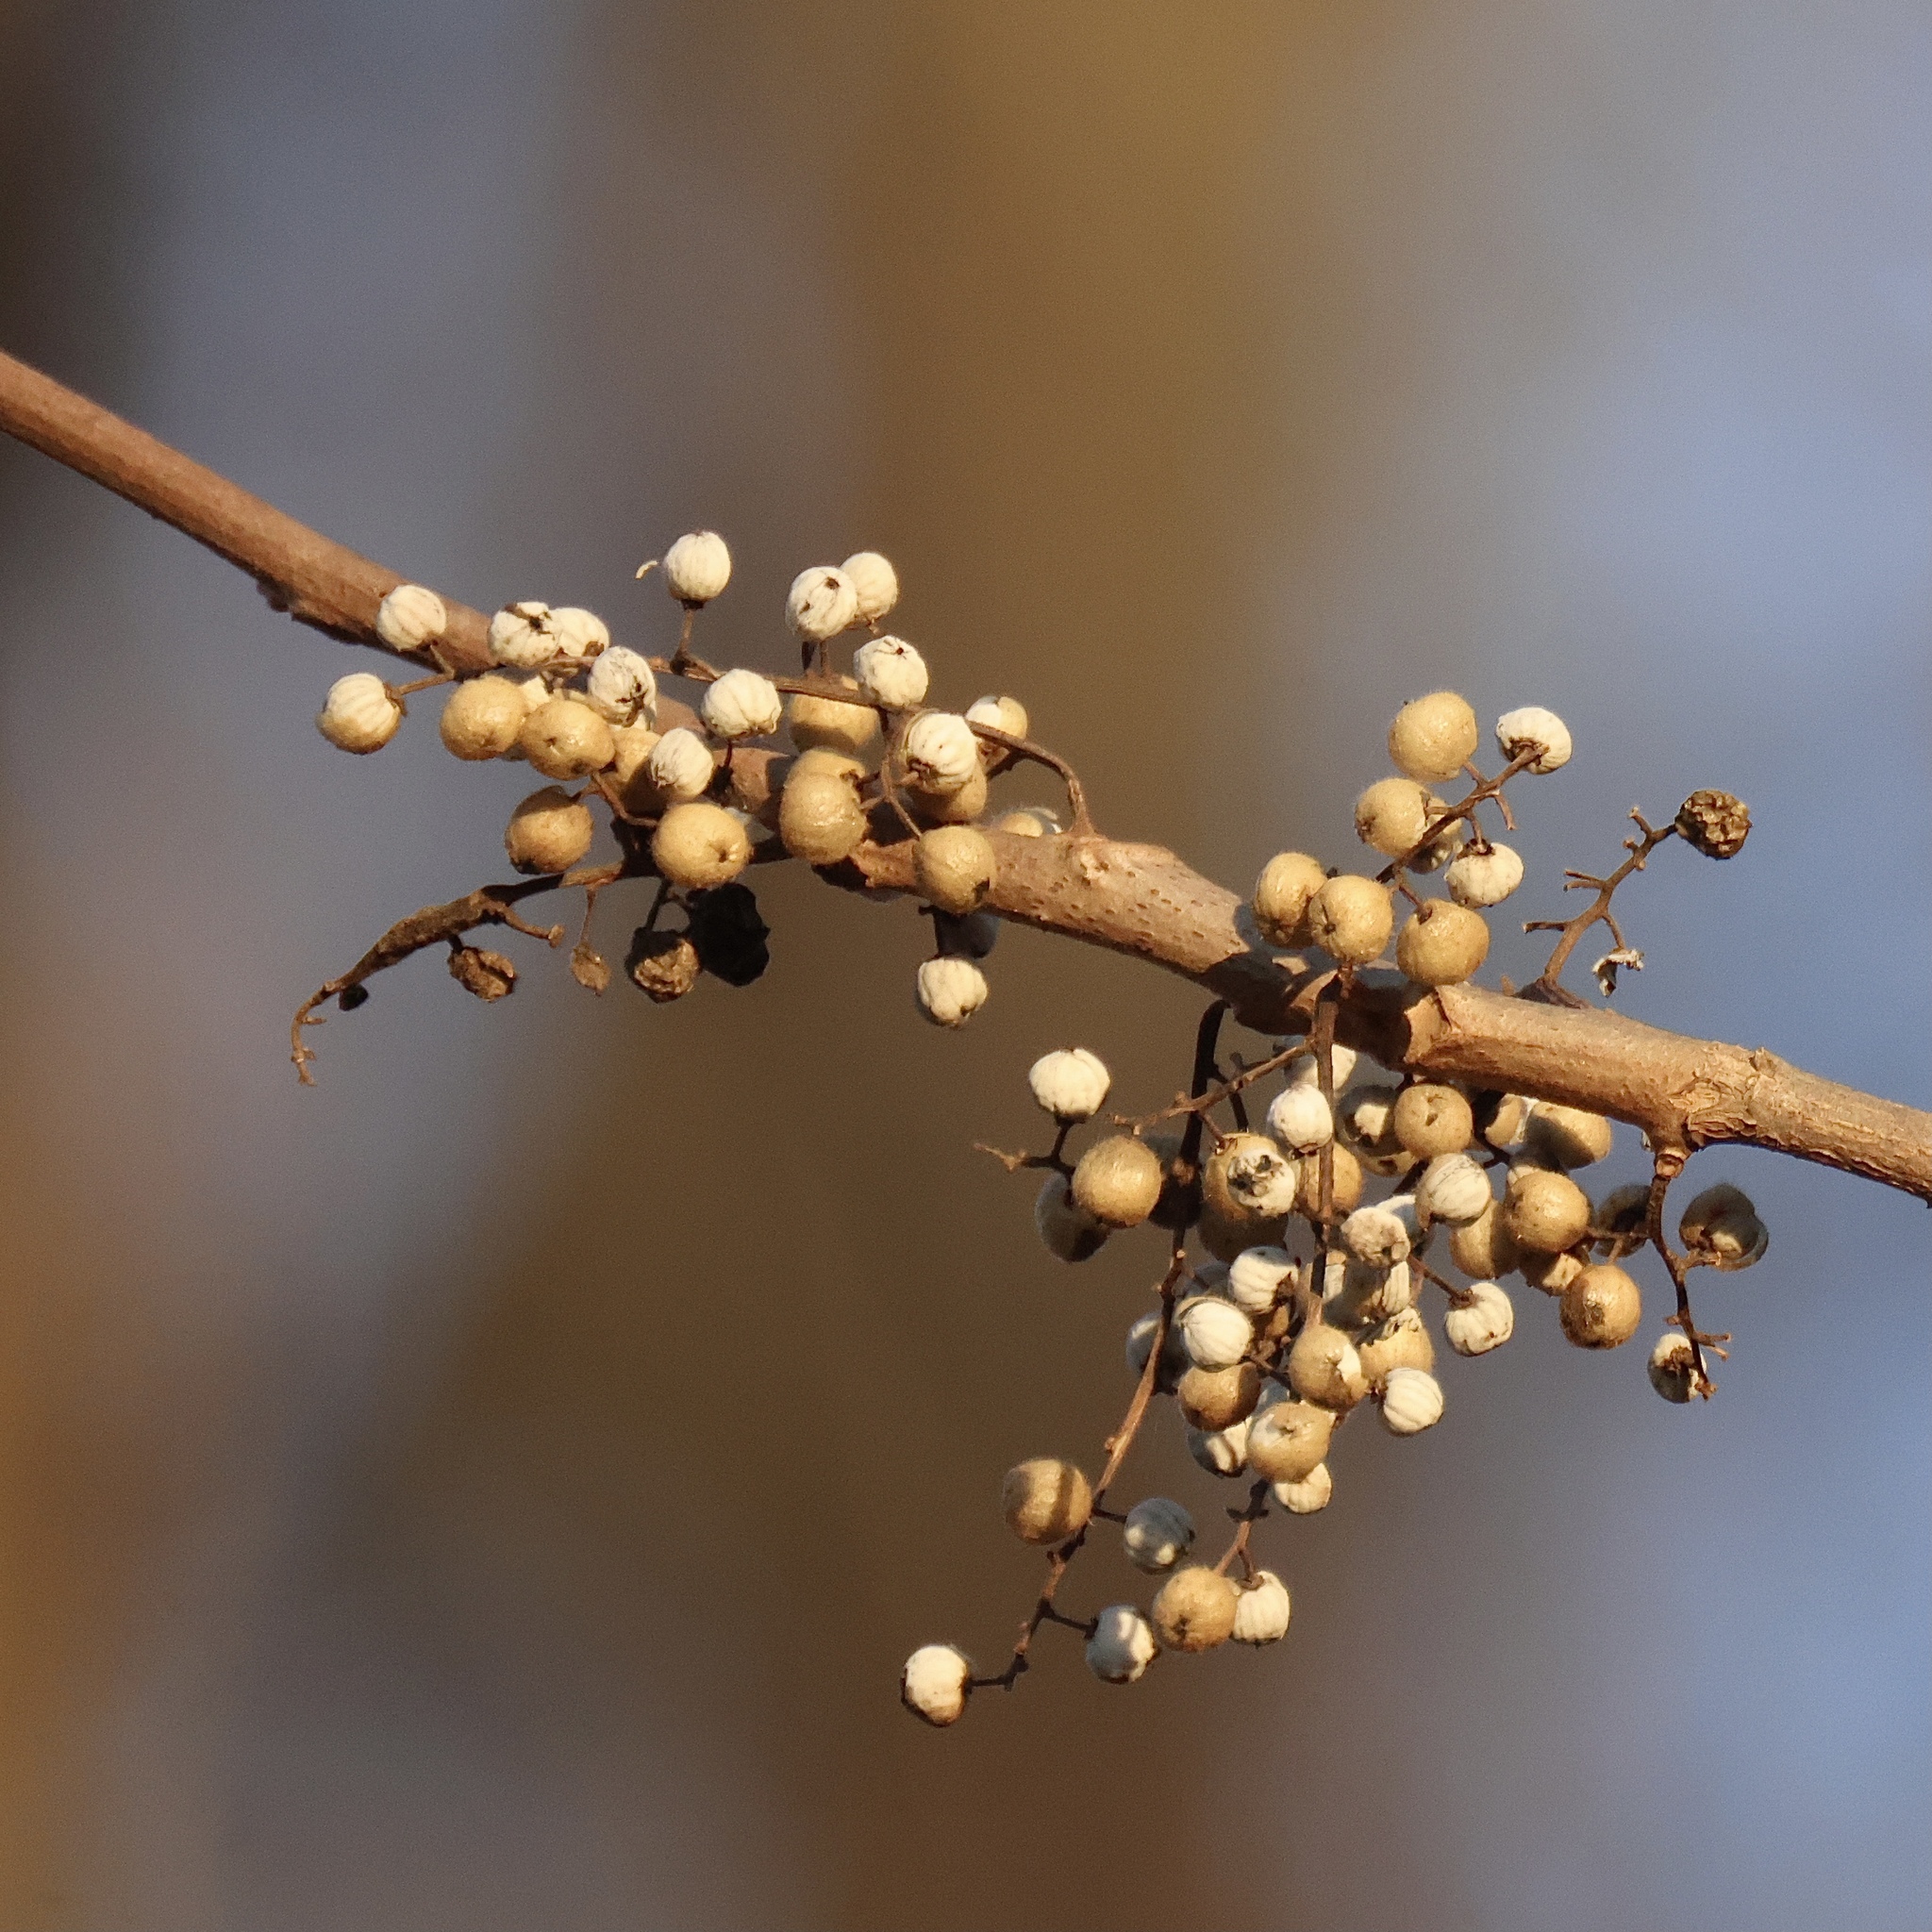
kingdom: Plantae
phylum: Tracheophyta
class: Magnoliopsida
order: Sapindales
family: Anacardiaceae
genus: Toxicodendron
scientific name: Toxicodendron radicans
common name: Poison ivy
